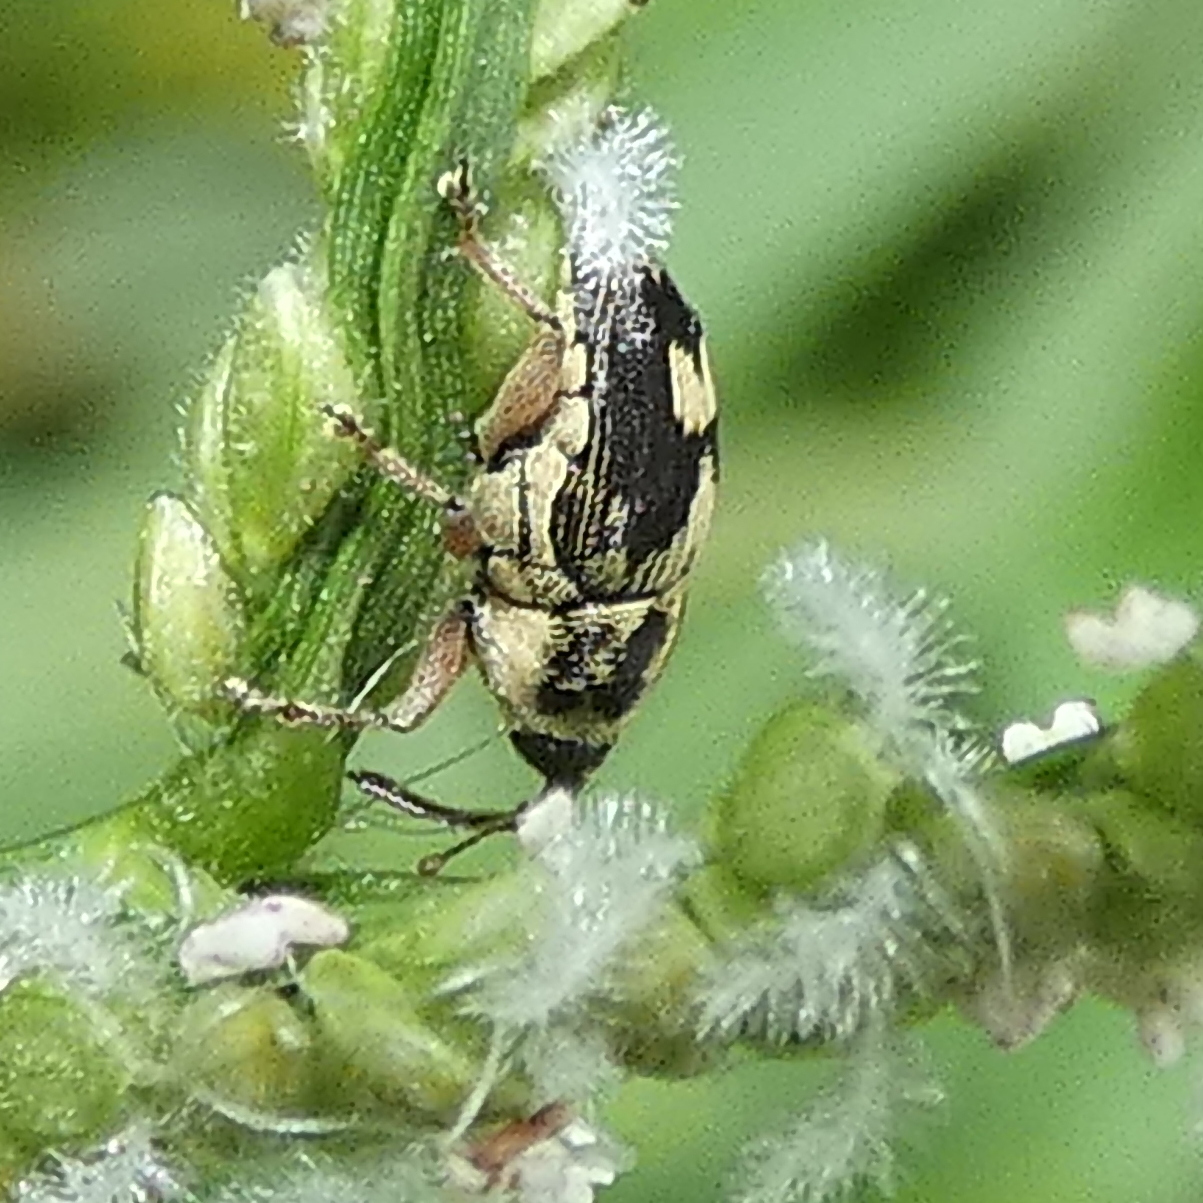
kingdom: Animalia
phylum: Arthropoda
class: Insecta
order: Coleoptera
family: Curculionidae
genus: Linogeraeus
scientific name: Linogeraeus
